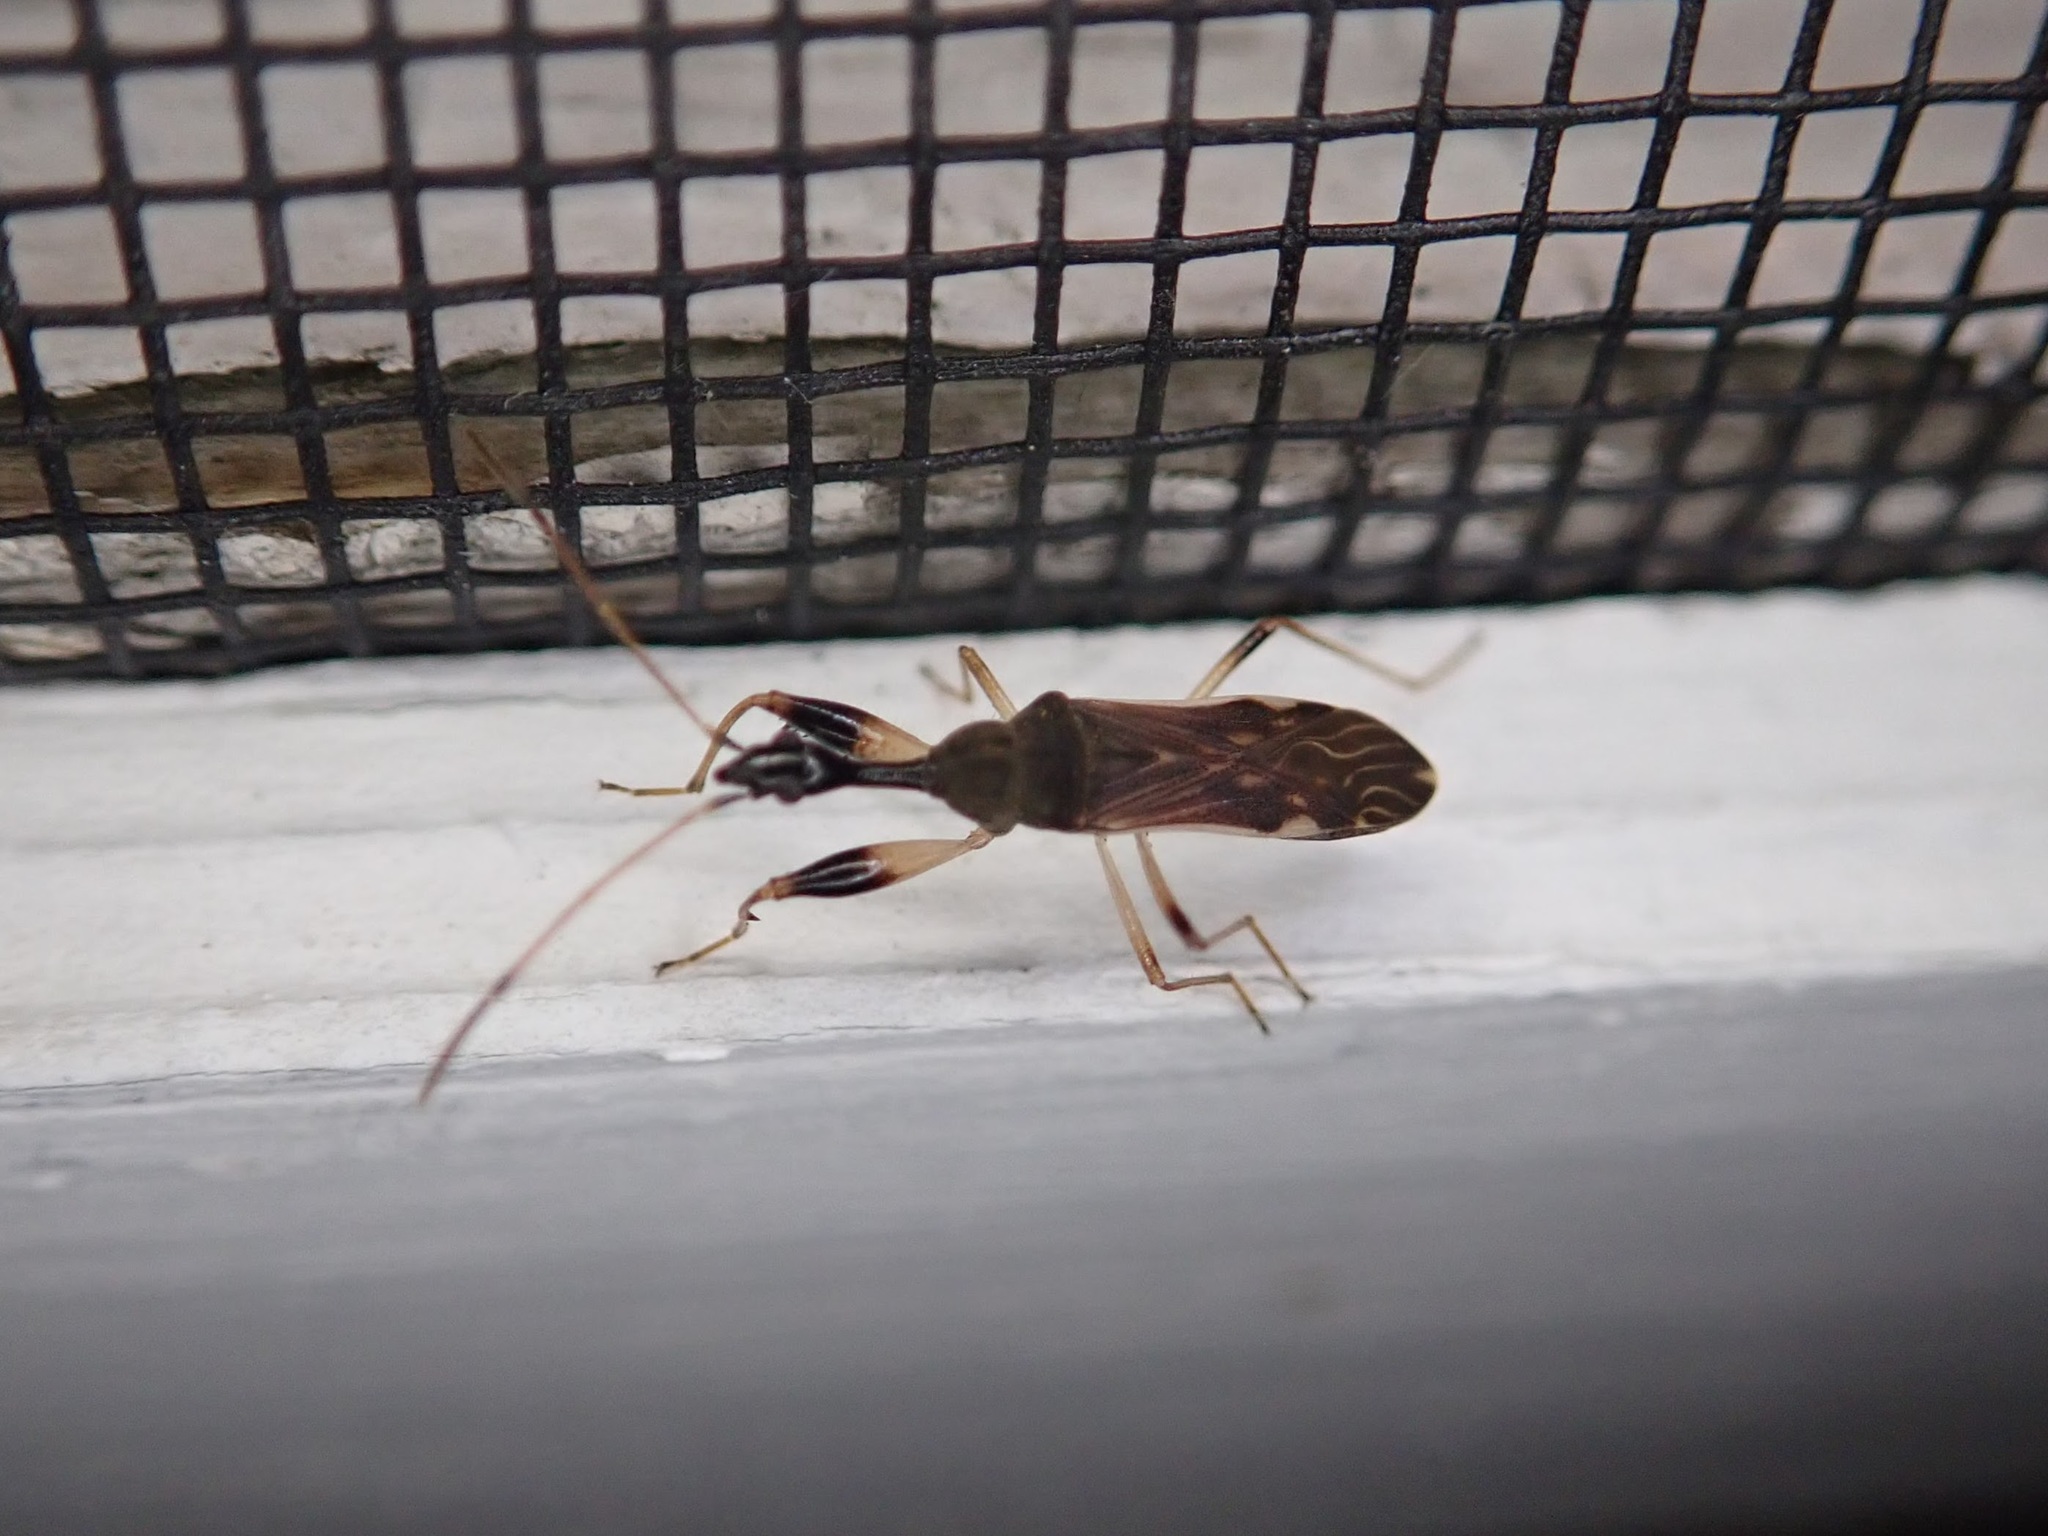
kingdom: Animalia
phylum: Arthropoda
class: Insecta
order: Hemiptera
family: Rhyparochromidae
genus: Myodocha
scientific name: Myodocha serripes
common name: Long-necked seed bug
